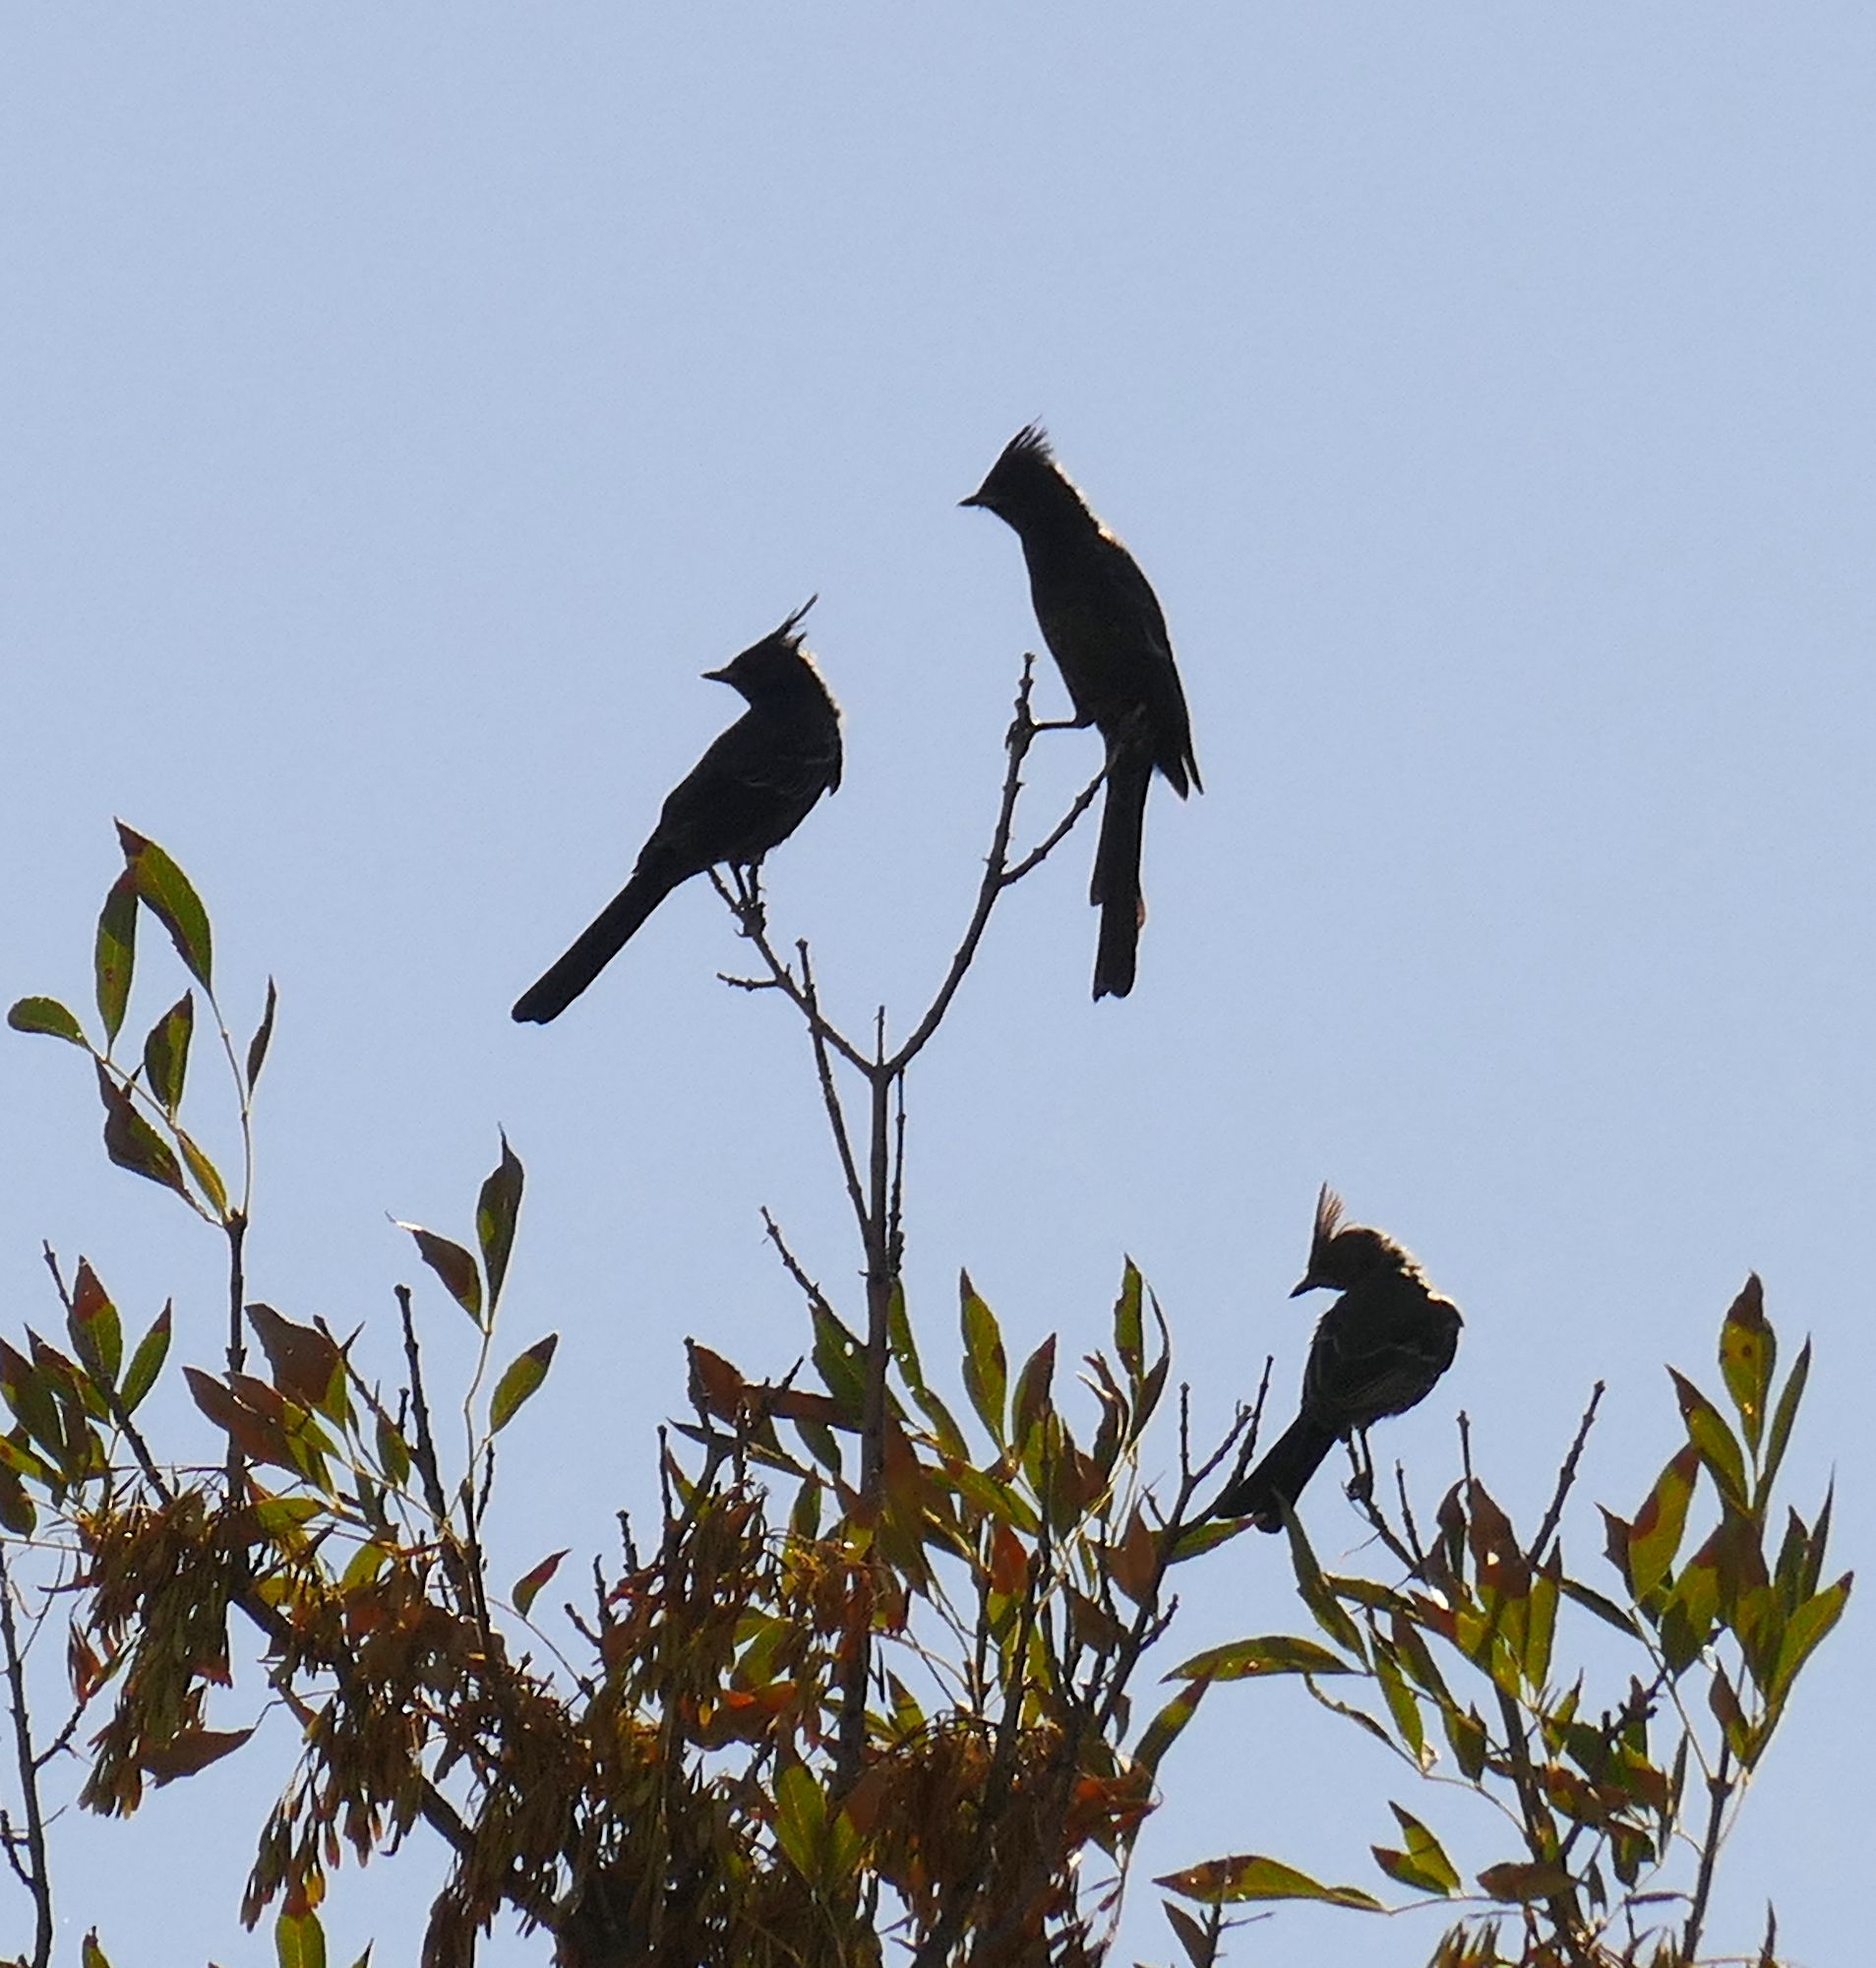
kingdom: Animalia
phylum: Chordata
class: Aves
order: Passeriformes
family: Ptilogonatidae
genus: Phainopepla
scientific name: Phainopepla nitens
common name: Phainopepla
